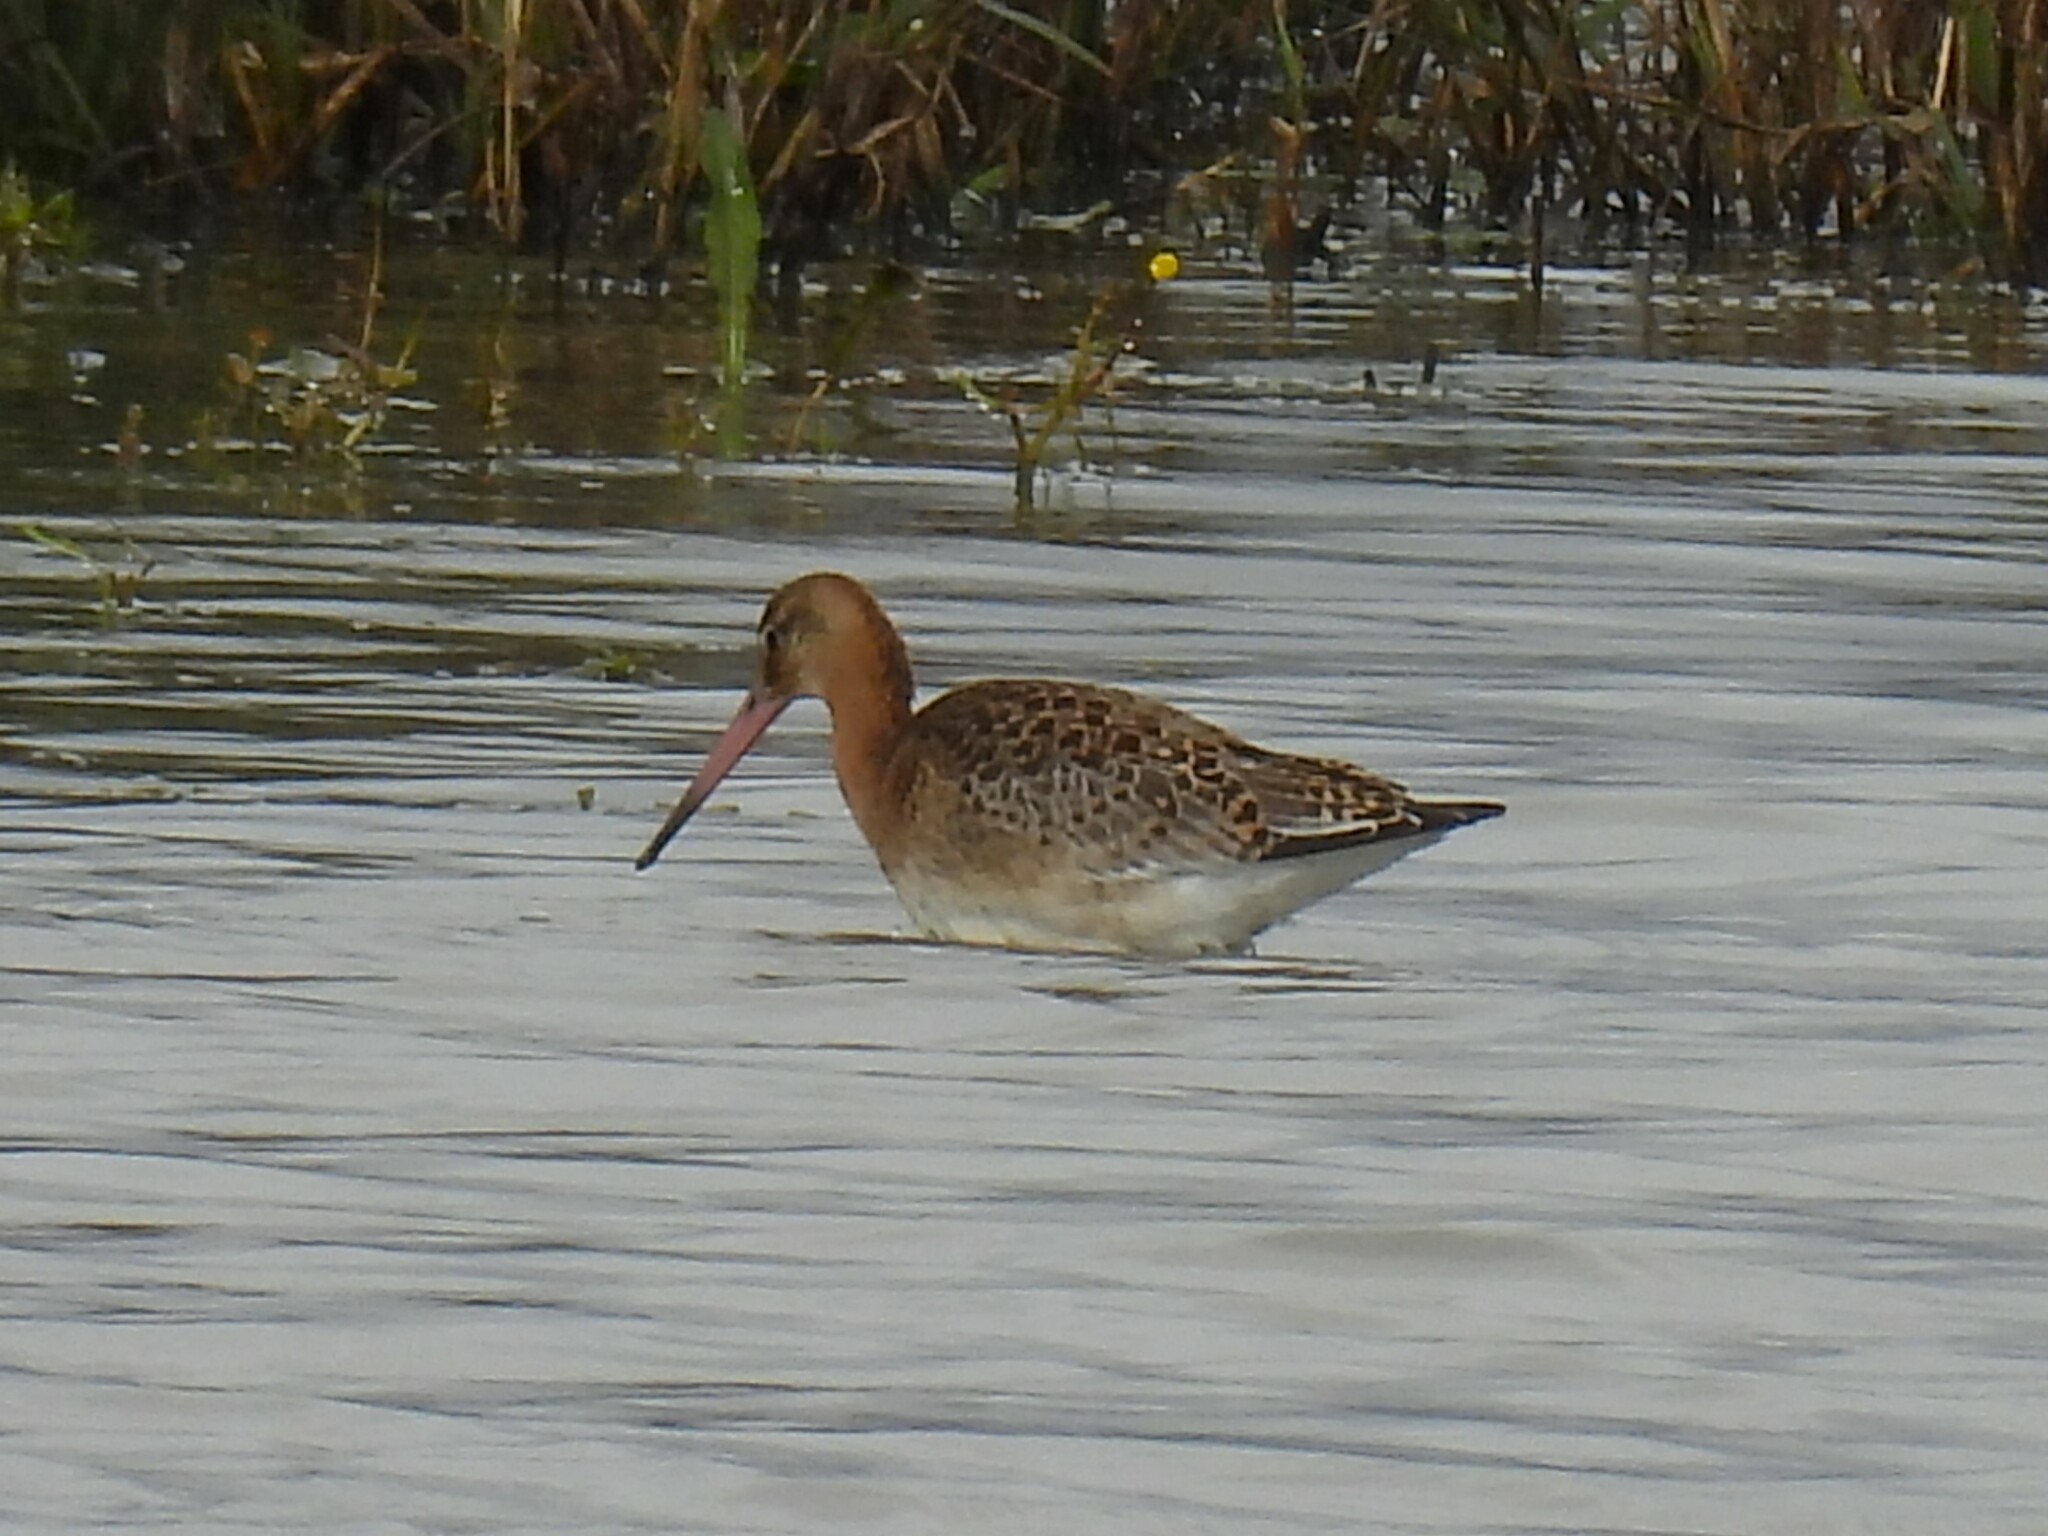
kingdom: Animalia
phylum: Chordata
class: Aves
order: Charadriiformes
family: Scolopacidae
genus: Limosa
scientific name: Limosa limosa
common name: Black-tailed godwit
